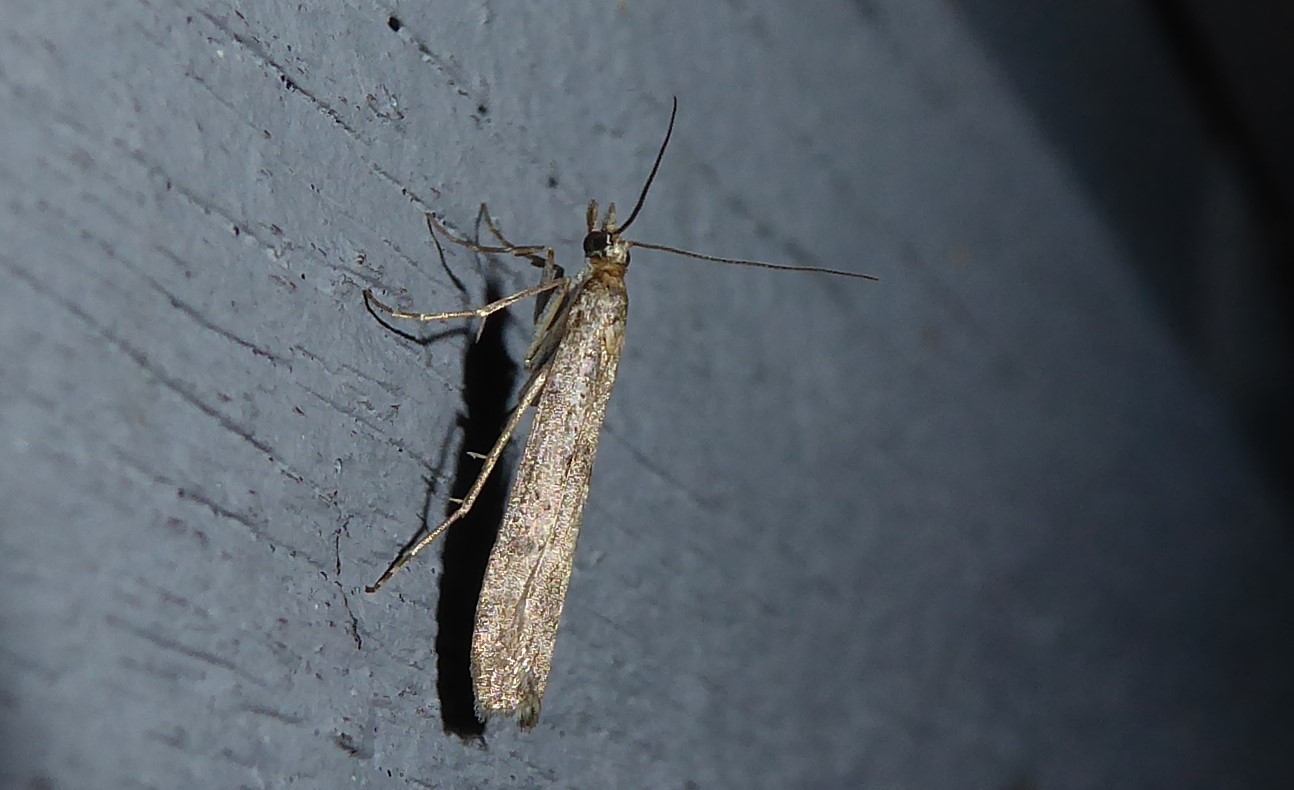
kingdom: Animalia
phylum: Arthropoda
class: Insecta
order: Lepidoptera
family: Crambidae
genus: Eudonia
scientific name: Eudonia leptalea
